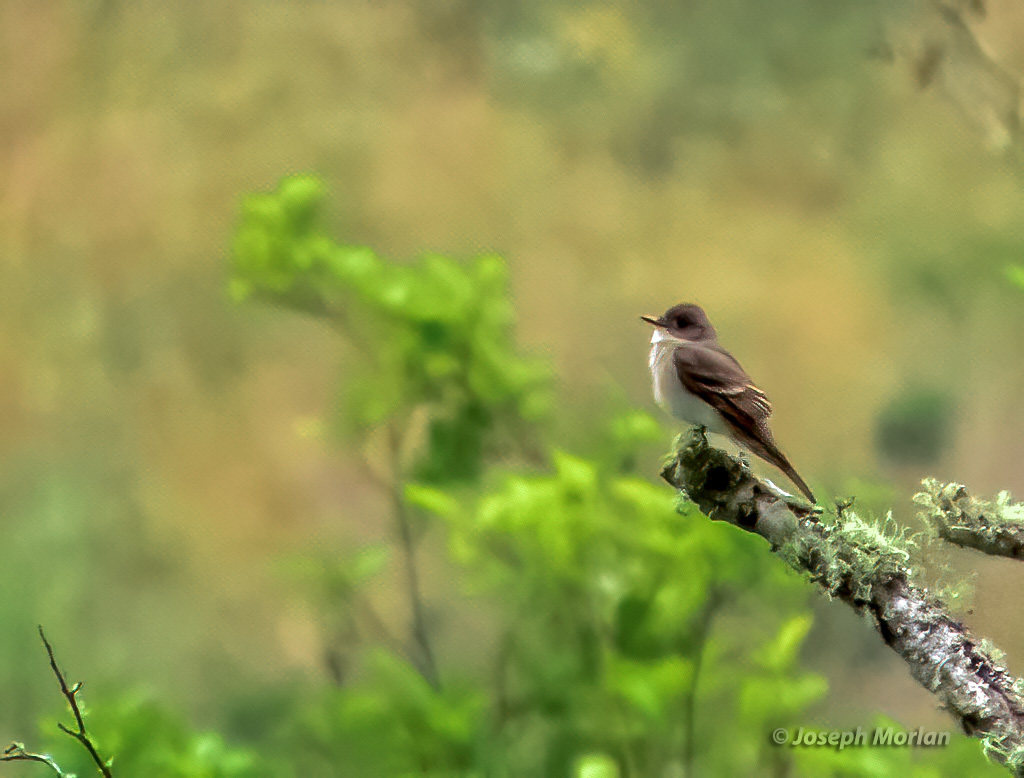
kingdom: Animalia
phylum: Chordata
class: Aves
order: Passeriformes
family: Tyrannidae
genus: Contopus
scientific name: Contopus sordidulus
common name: Western wood-pewee
